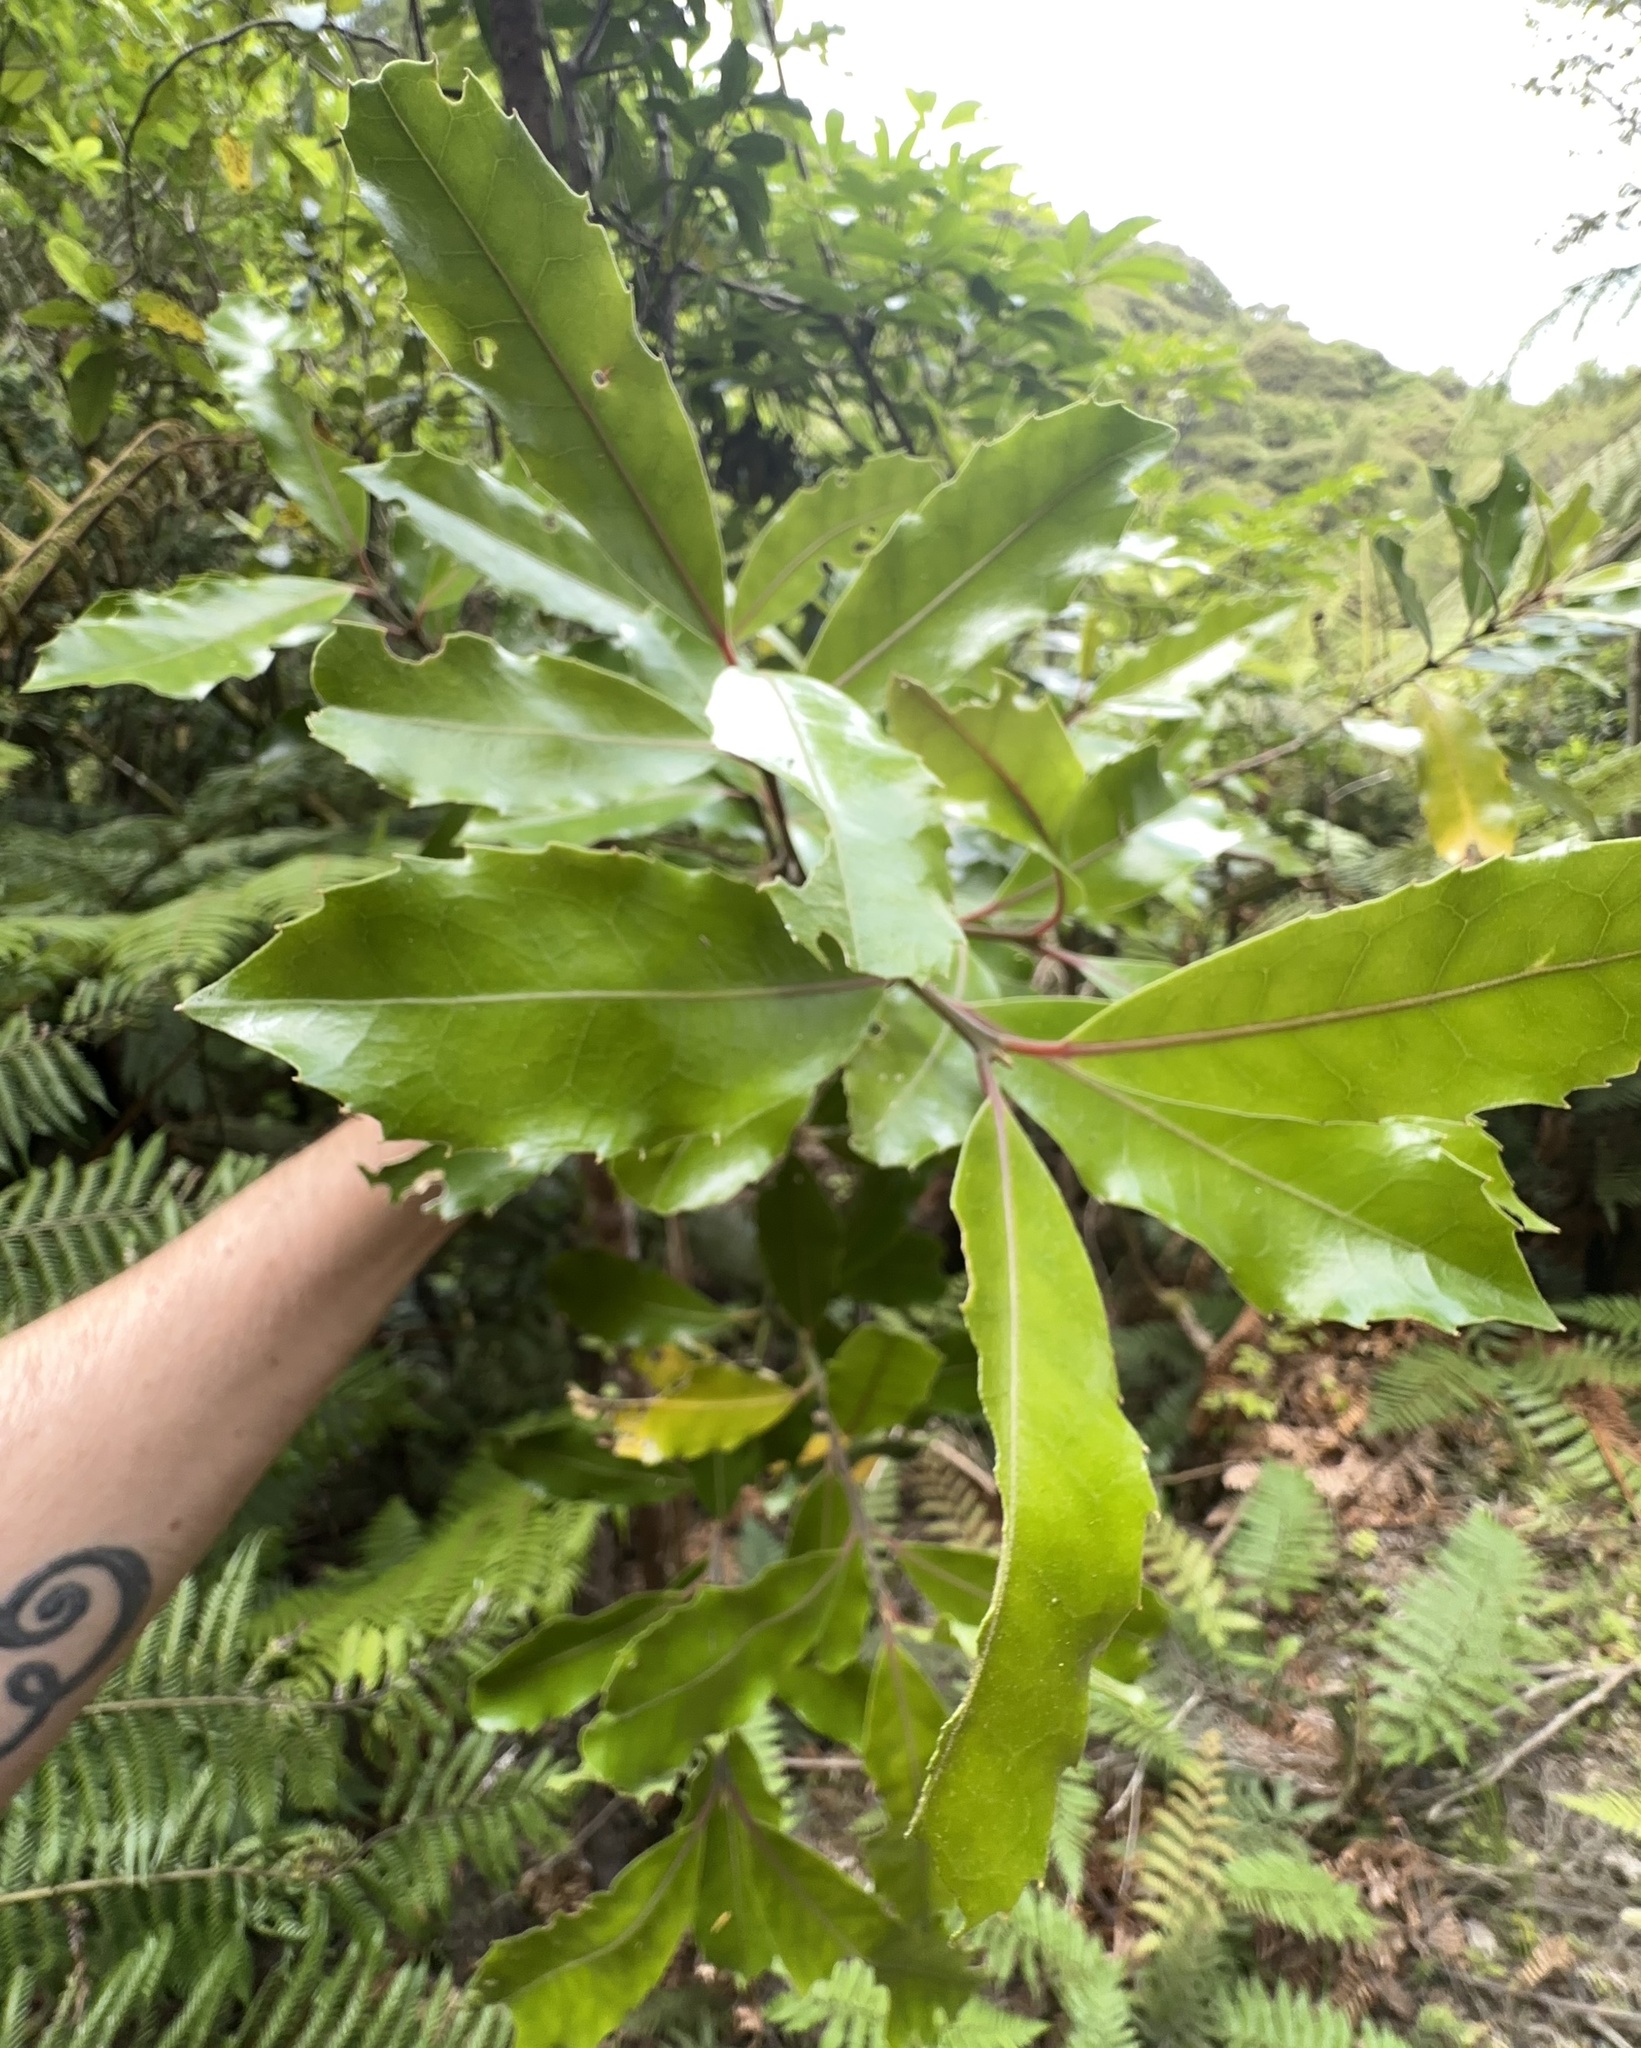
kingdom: Plantae
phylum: Tracheophyta
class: Magnoliopsida
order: Laurales
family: Monimiaceae
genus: Hedycarya
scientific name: Hedycarya arborea
